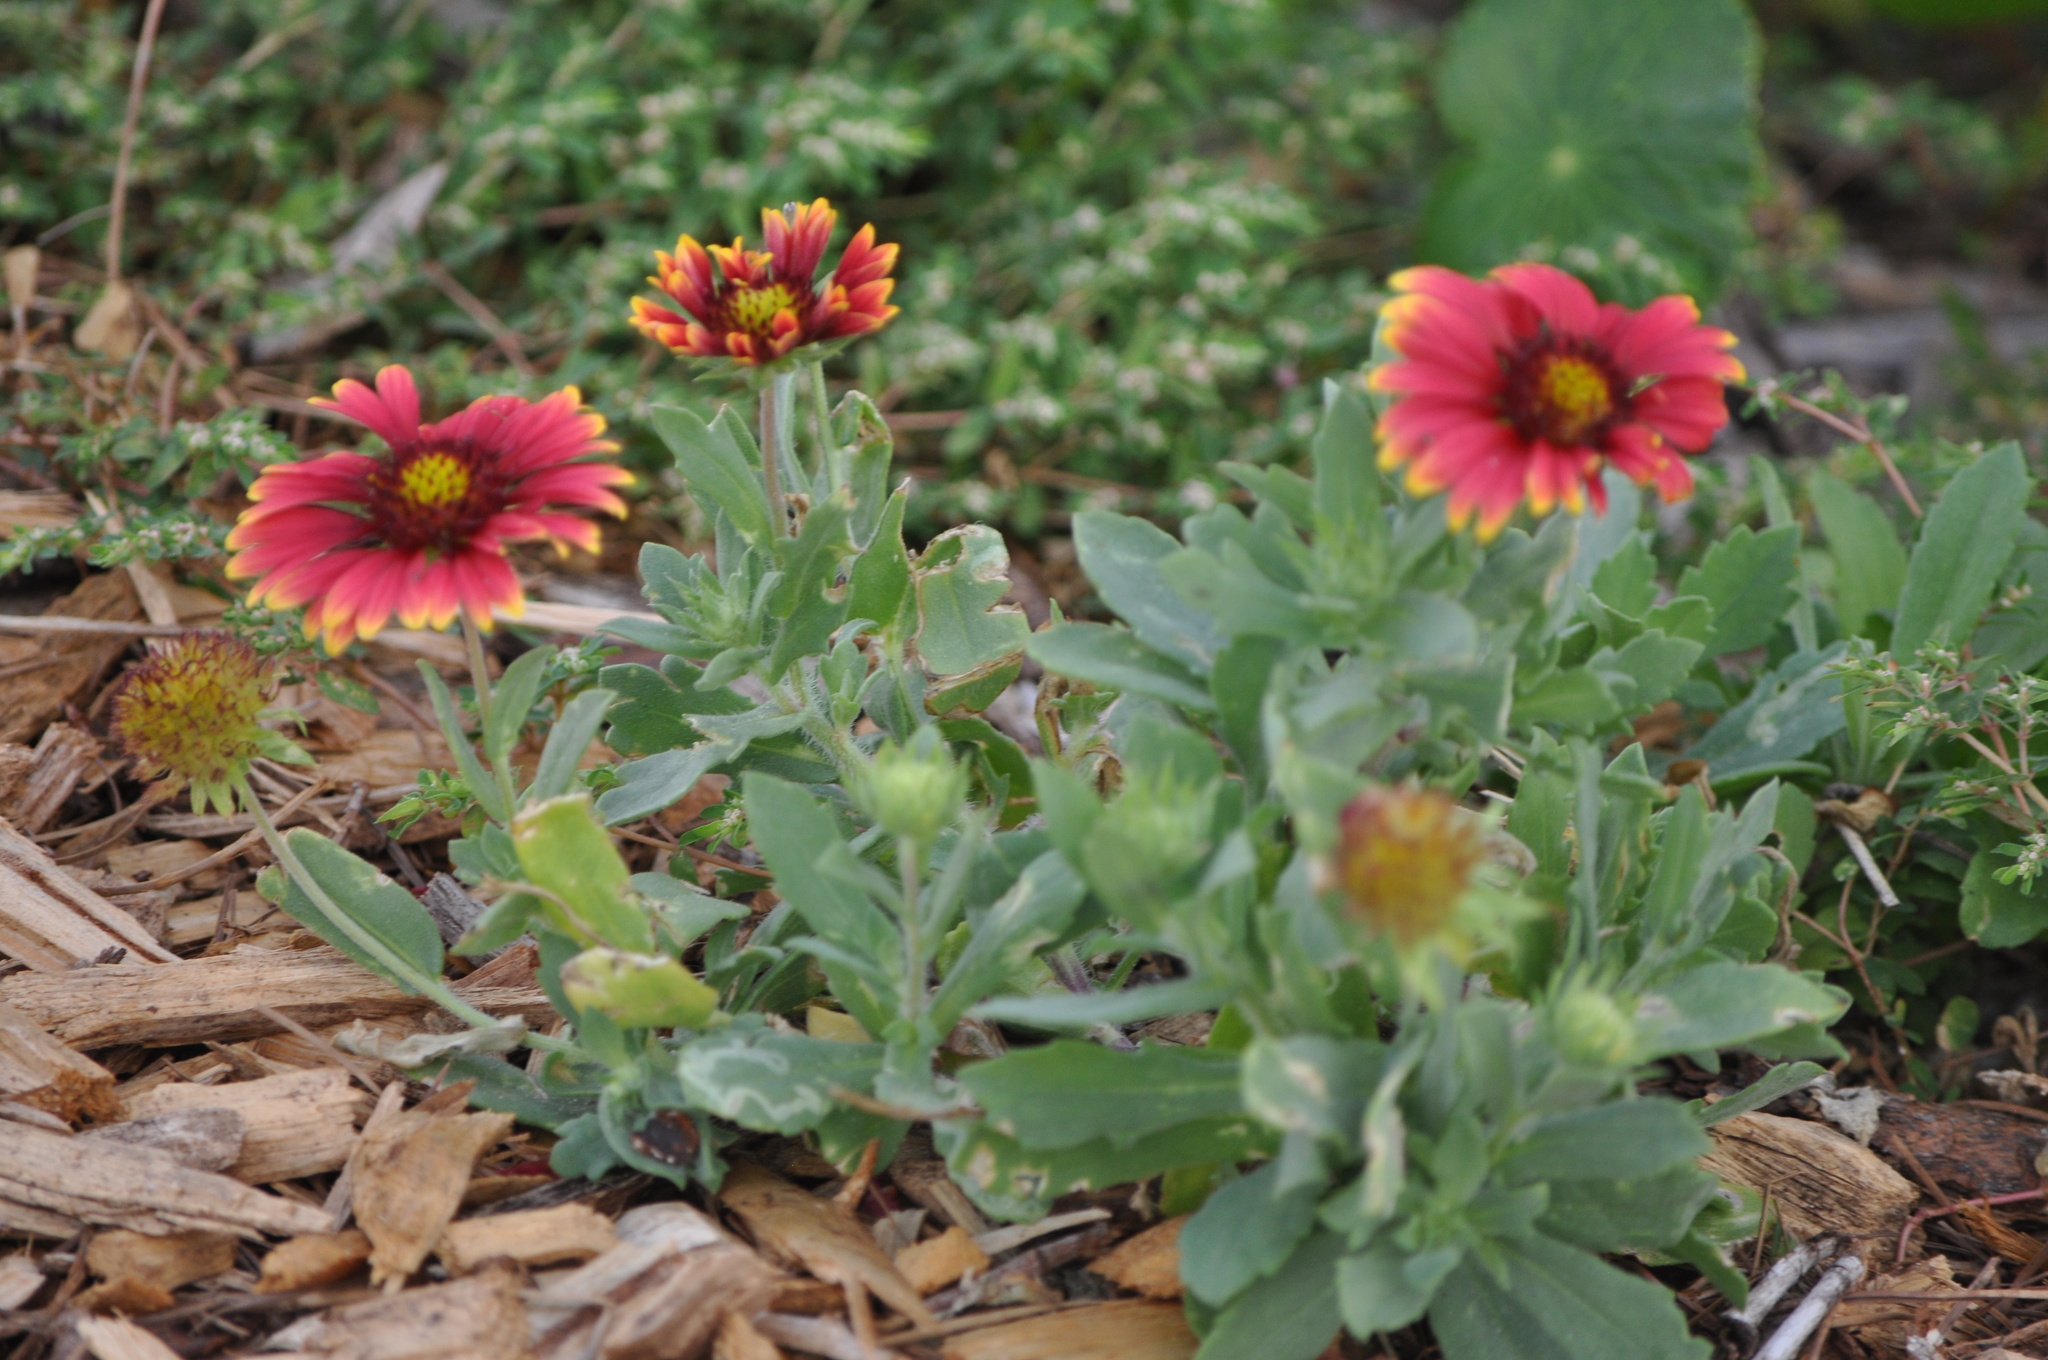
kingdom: Plantae
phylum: Tracheophyta
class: Magnoliopsida
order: Asterales
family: Asteraceae
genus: Gaillardia
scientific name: Gaillardia pulchella
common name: Firewheel
